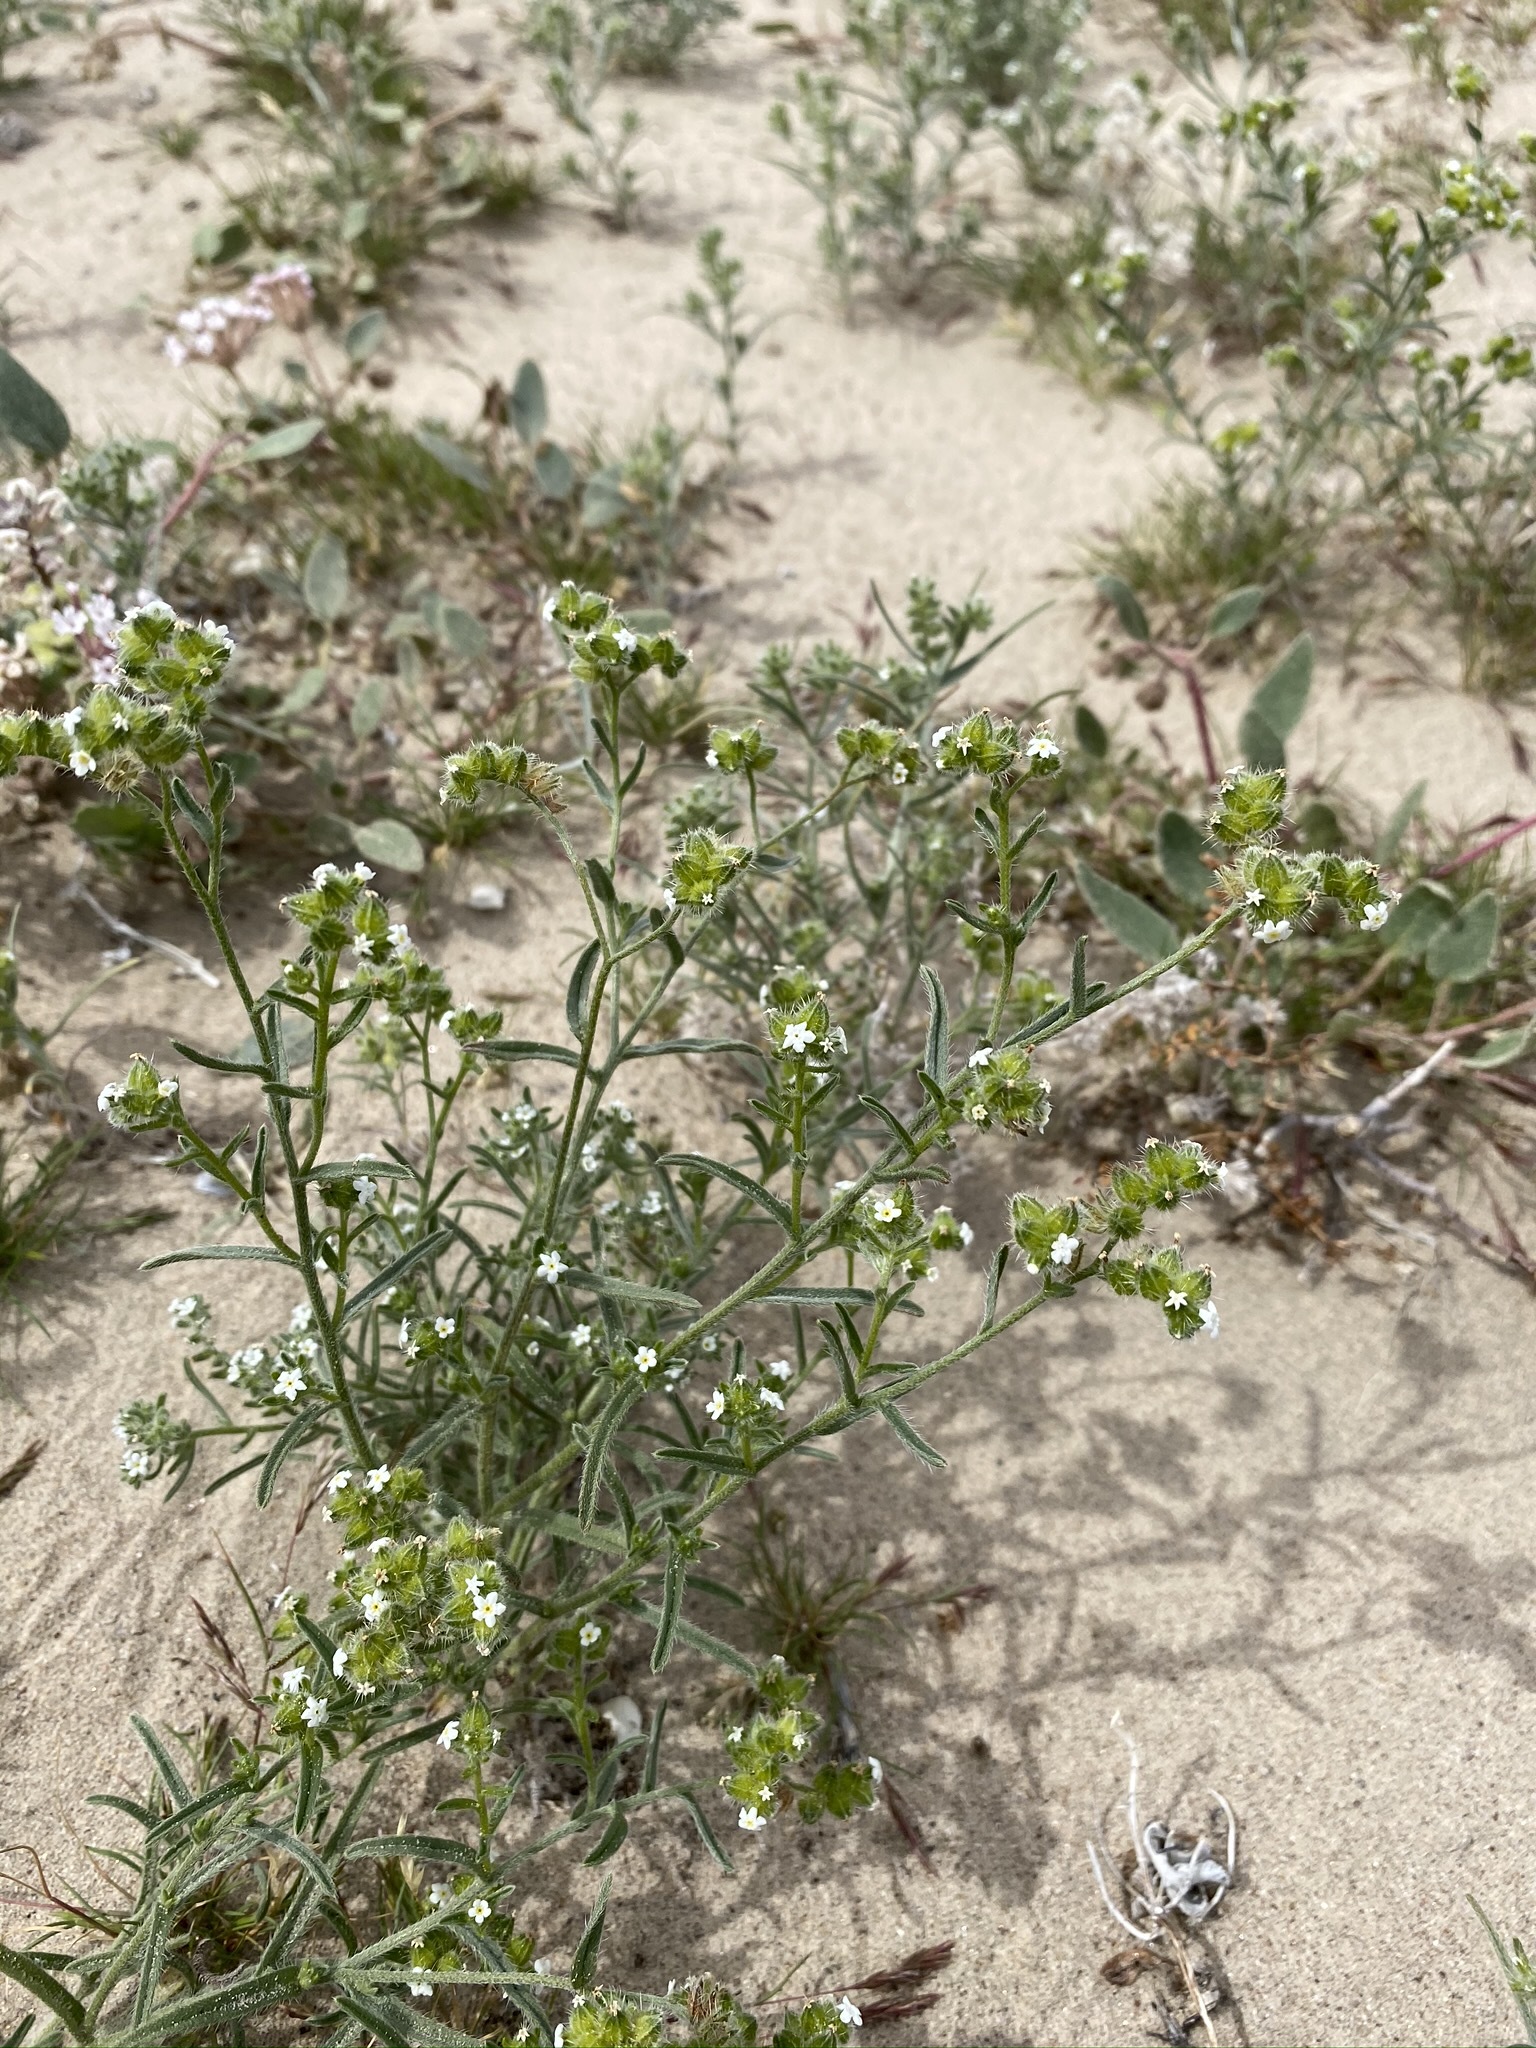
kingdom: Plantae
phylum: Tracheophyta
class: Magnoliopsida
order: Boraginales
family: Boraginaceae
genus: Cryptantha
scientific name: Cryptantha pterocarya
